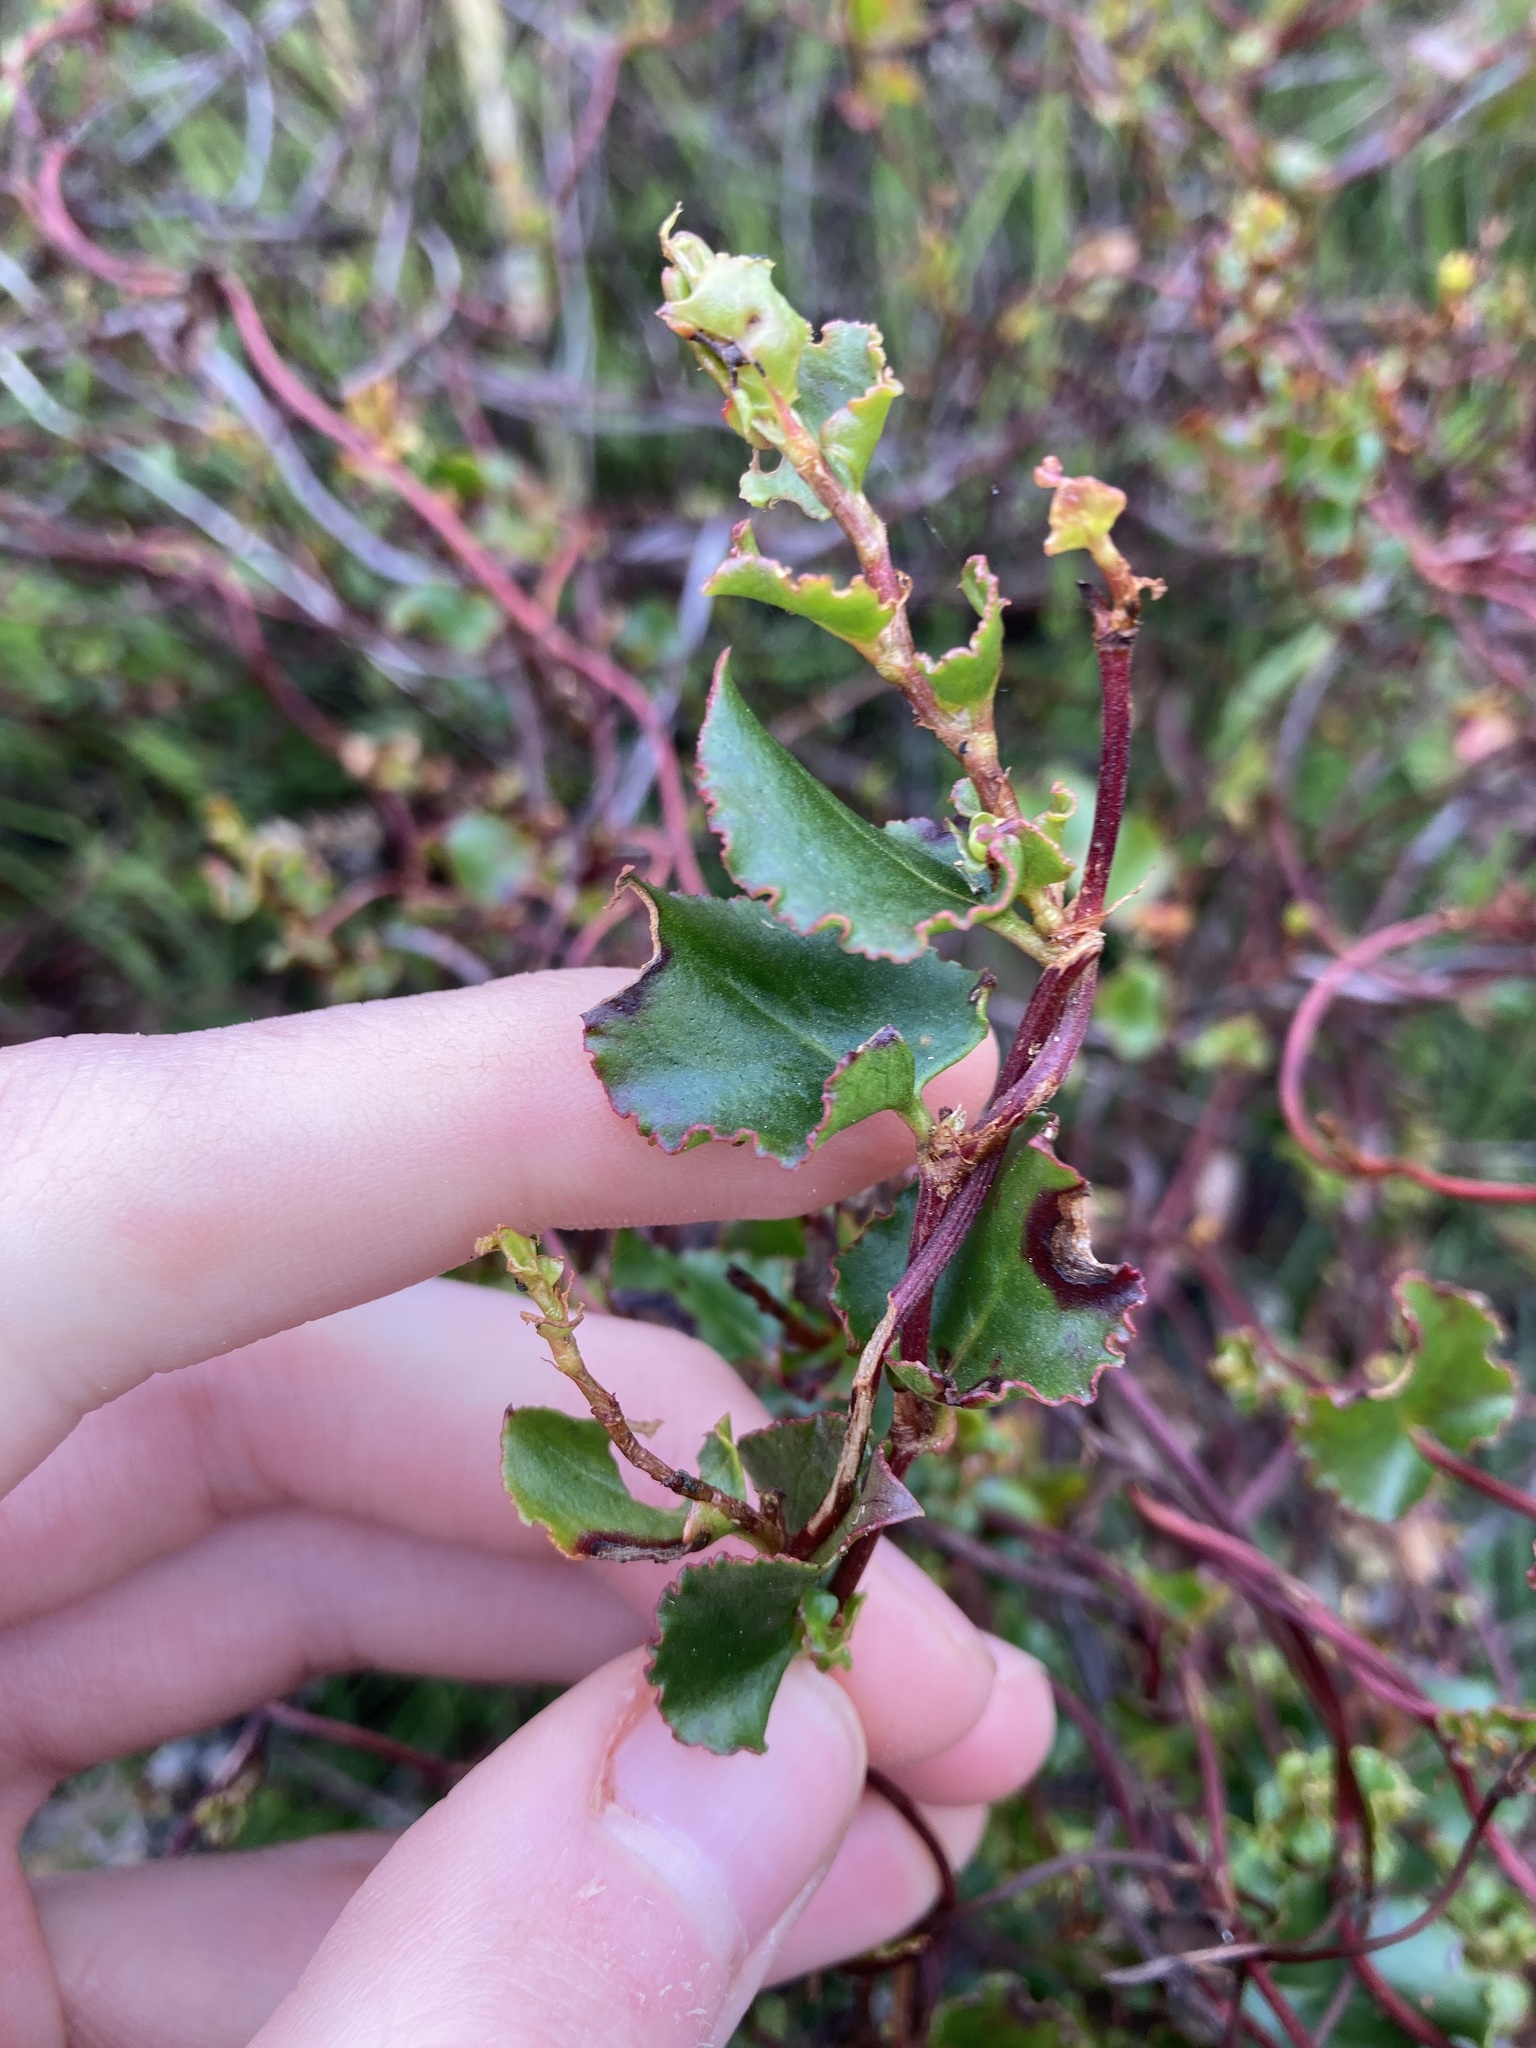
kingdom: Plantae
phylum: Tracheophyta
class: Magnoliopsida
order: Caryophyllales
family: Polygonaceae
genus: Muehlenbeckia
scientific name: Muehlenbeckia adpressa
